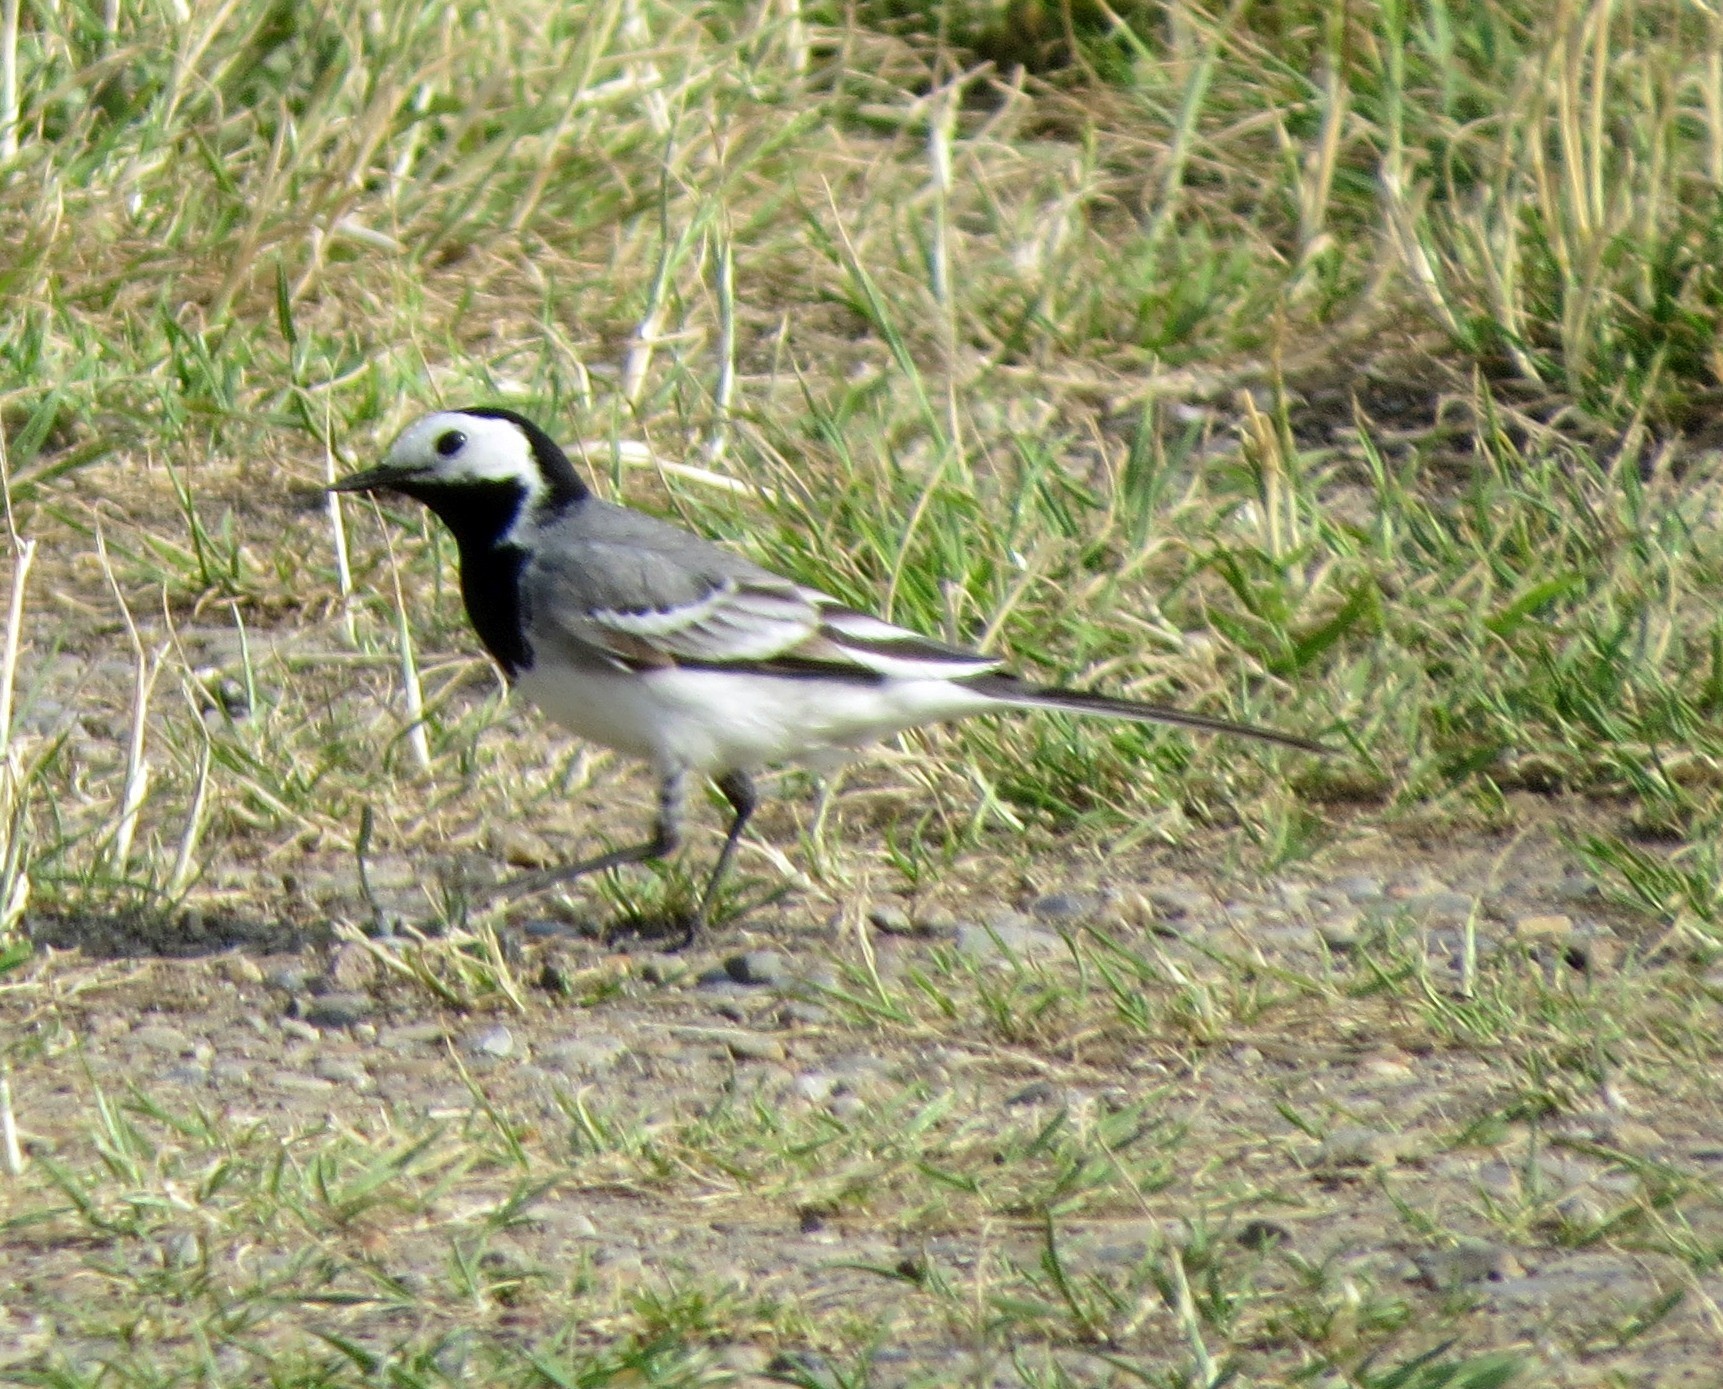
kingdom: Animalia
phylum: Chordata
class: Aves
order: Passeriformes
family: Motacillidae
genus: Motacilla
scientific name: Motacilla alba
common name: White wagtail
